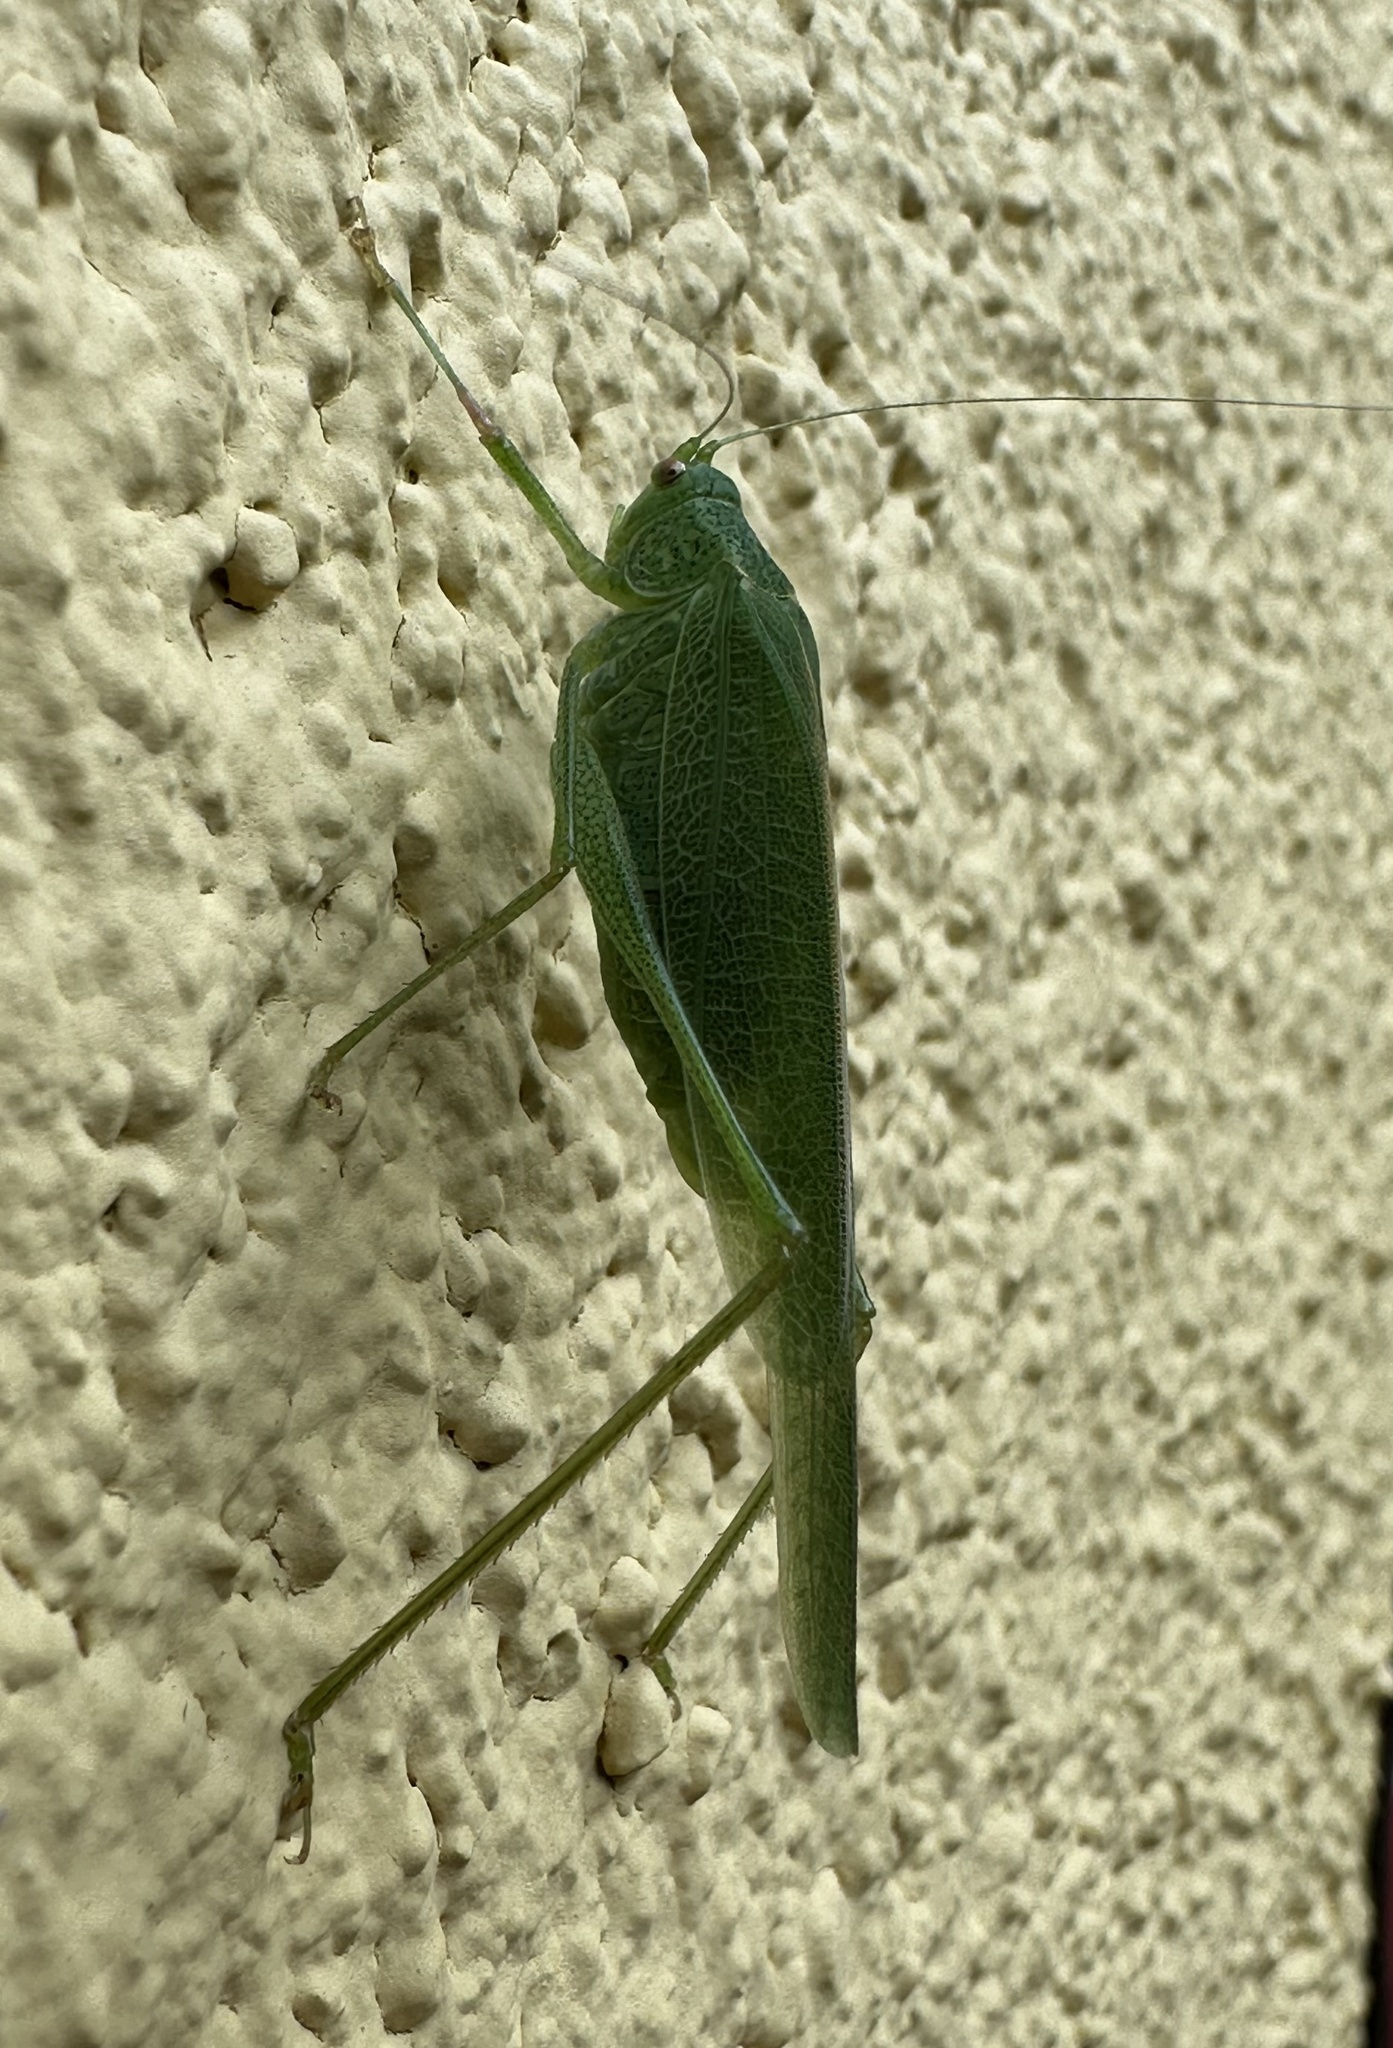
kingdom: Animalia
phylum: Arthropoda
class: Insecta
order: Orthoptera
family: Tettigoniidae
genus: Phaneroptera
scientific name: Phaneroptera nana
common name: Southern sickle bush-cricket
